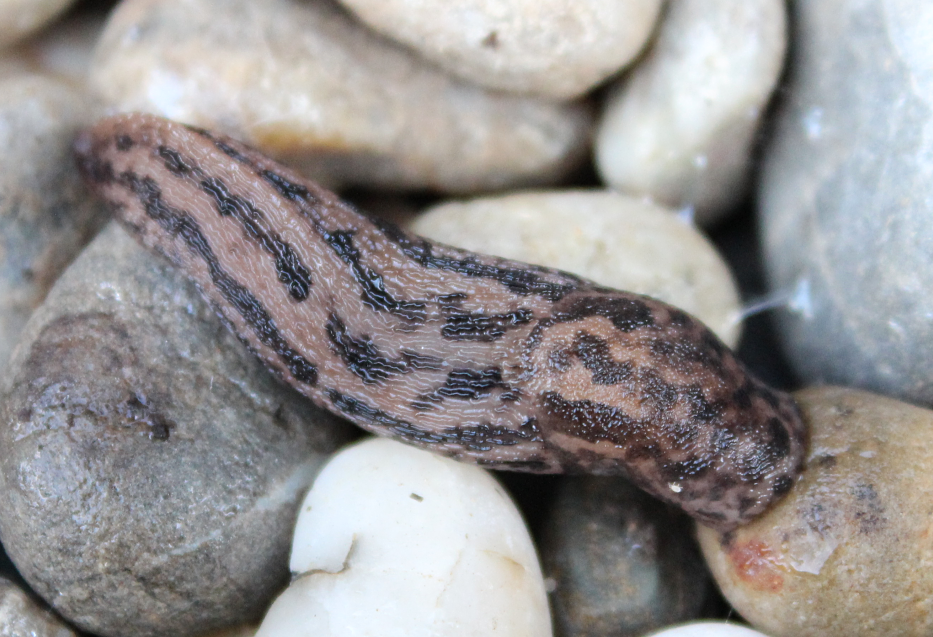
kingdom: Animalia
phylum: Mollusca
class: Gastropoda
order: Stylommatophora
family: Limacidae
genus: Limax
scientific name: Limax maximus
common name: Great grey slug
